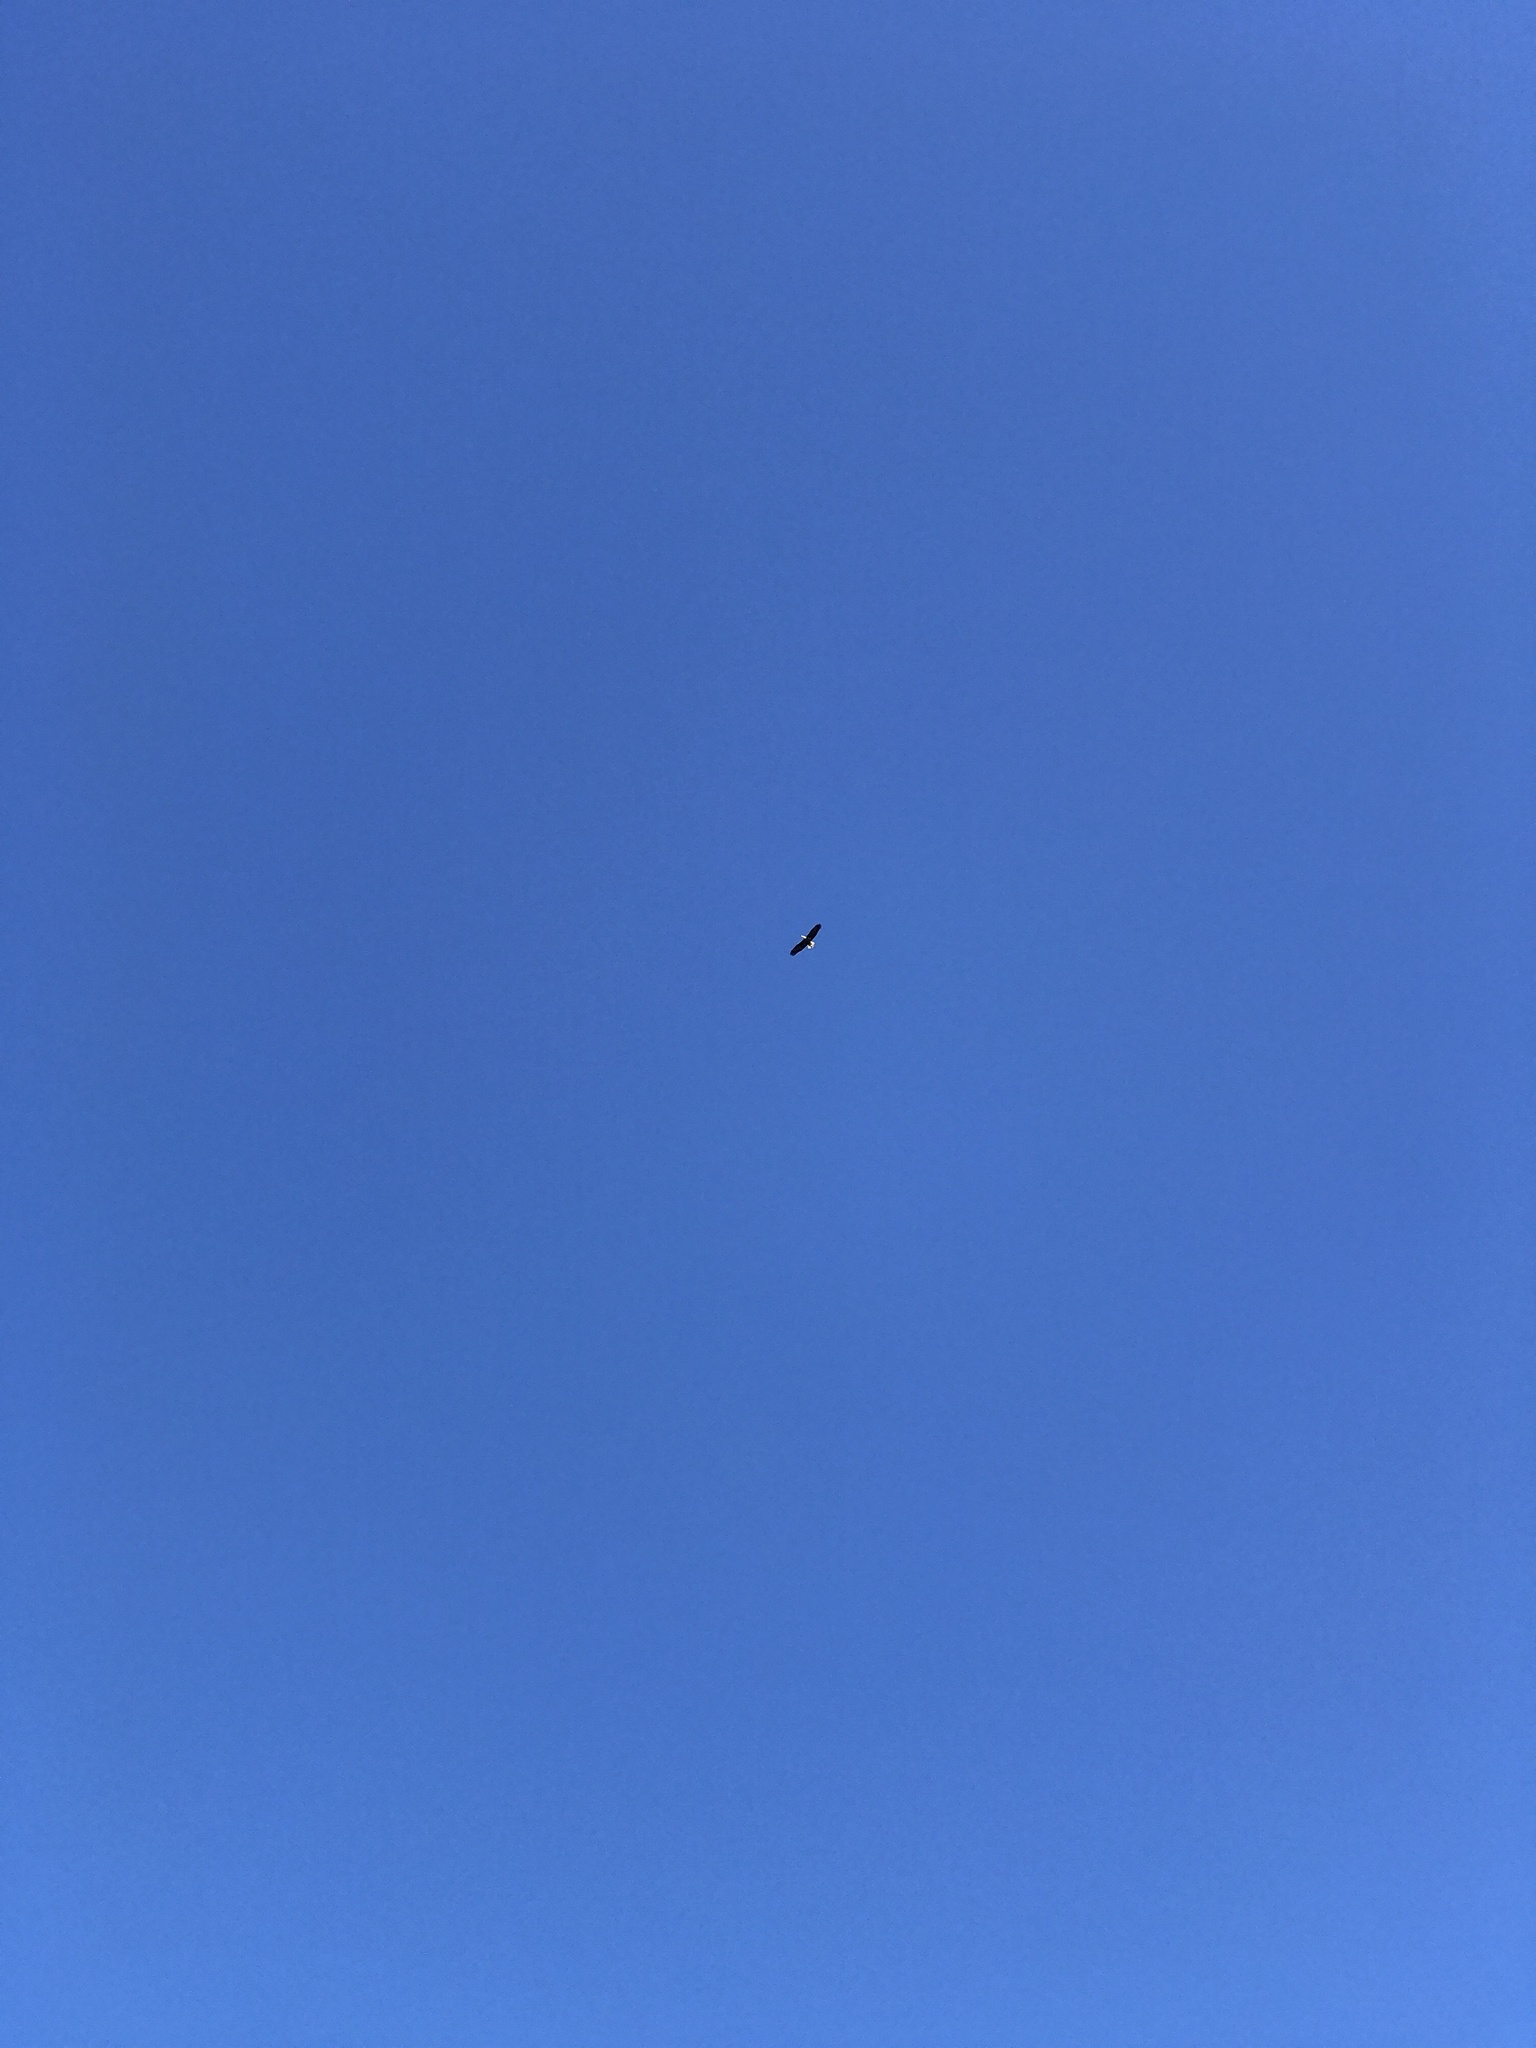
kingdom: Animalia
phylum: Chordata
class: Aves
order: Accipitriformes
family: Accipitridae
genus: Haliaeetus
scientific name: Haliaeetus leucocephalus
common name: Bald eagle
